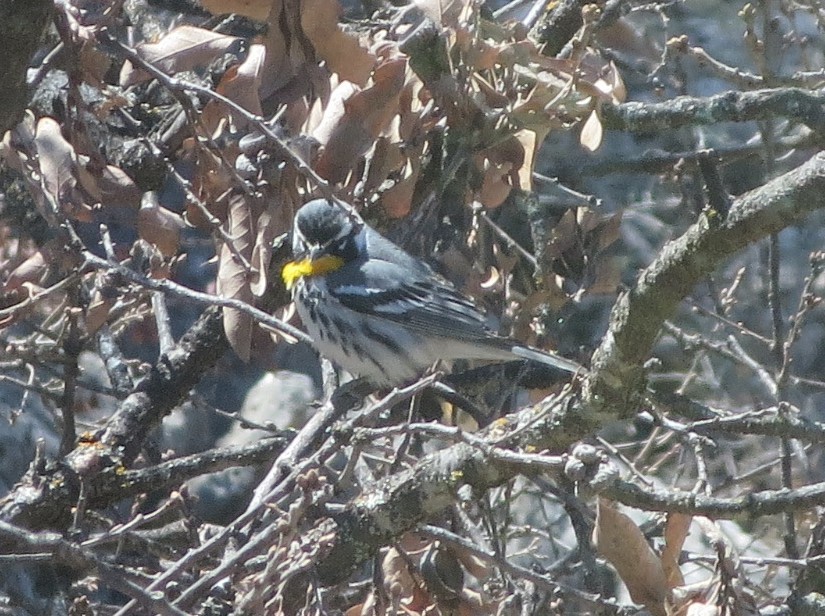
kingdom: Animalia
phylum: Chordata
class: Aves
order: Passeriformes
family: Parulidae
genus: Setophaga
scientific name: Setophaga dominica
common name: Yellow-throated warbler
